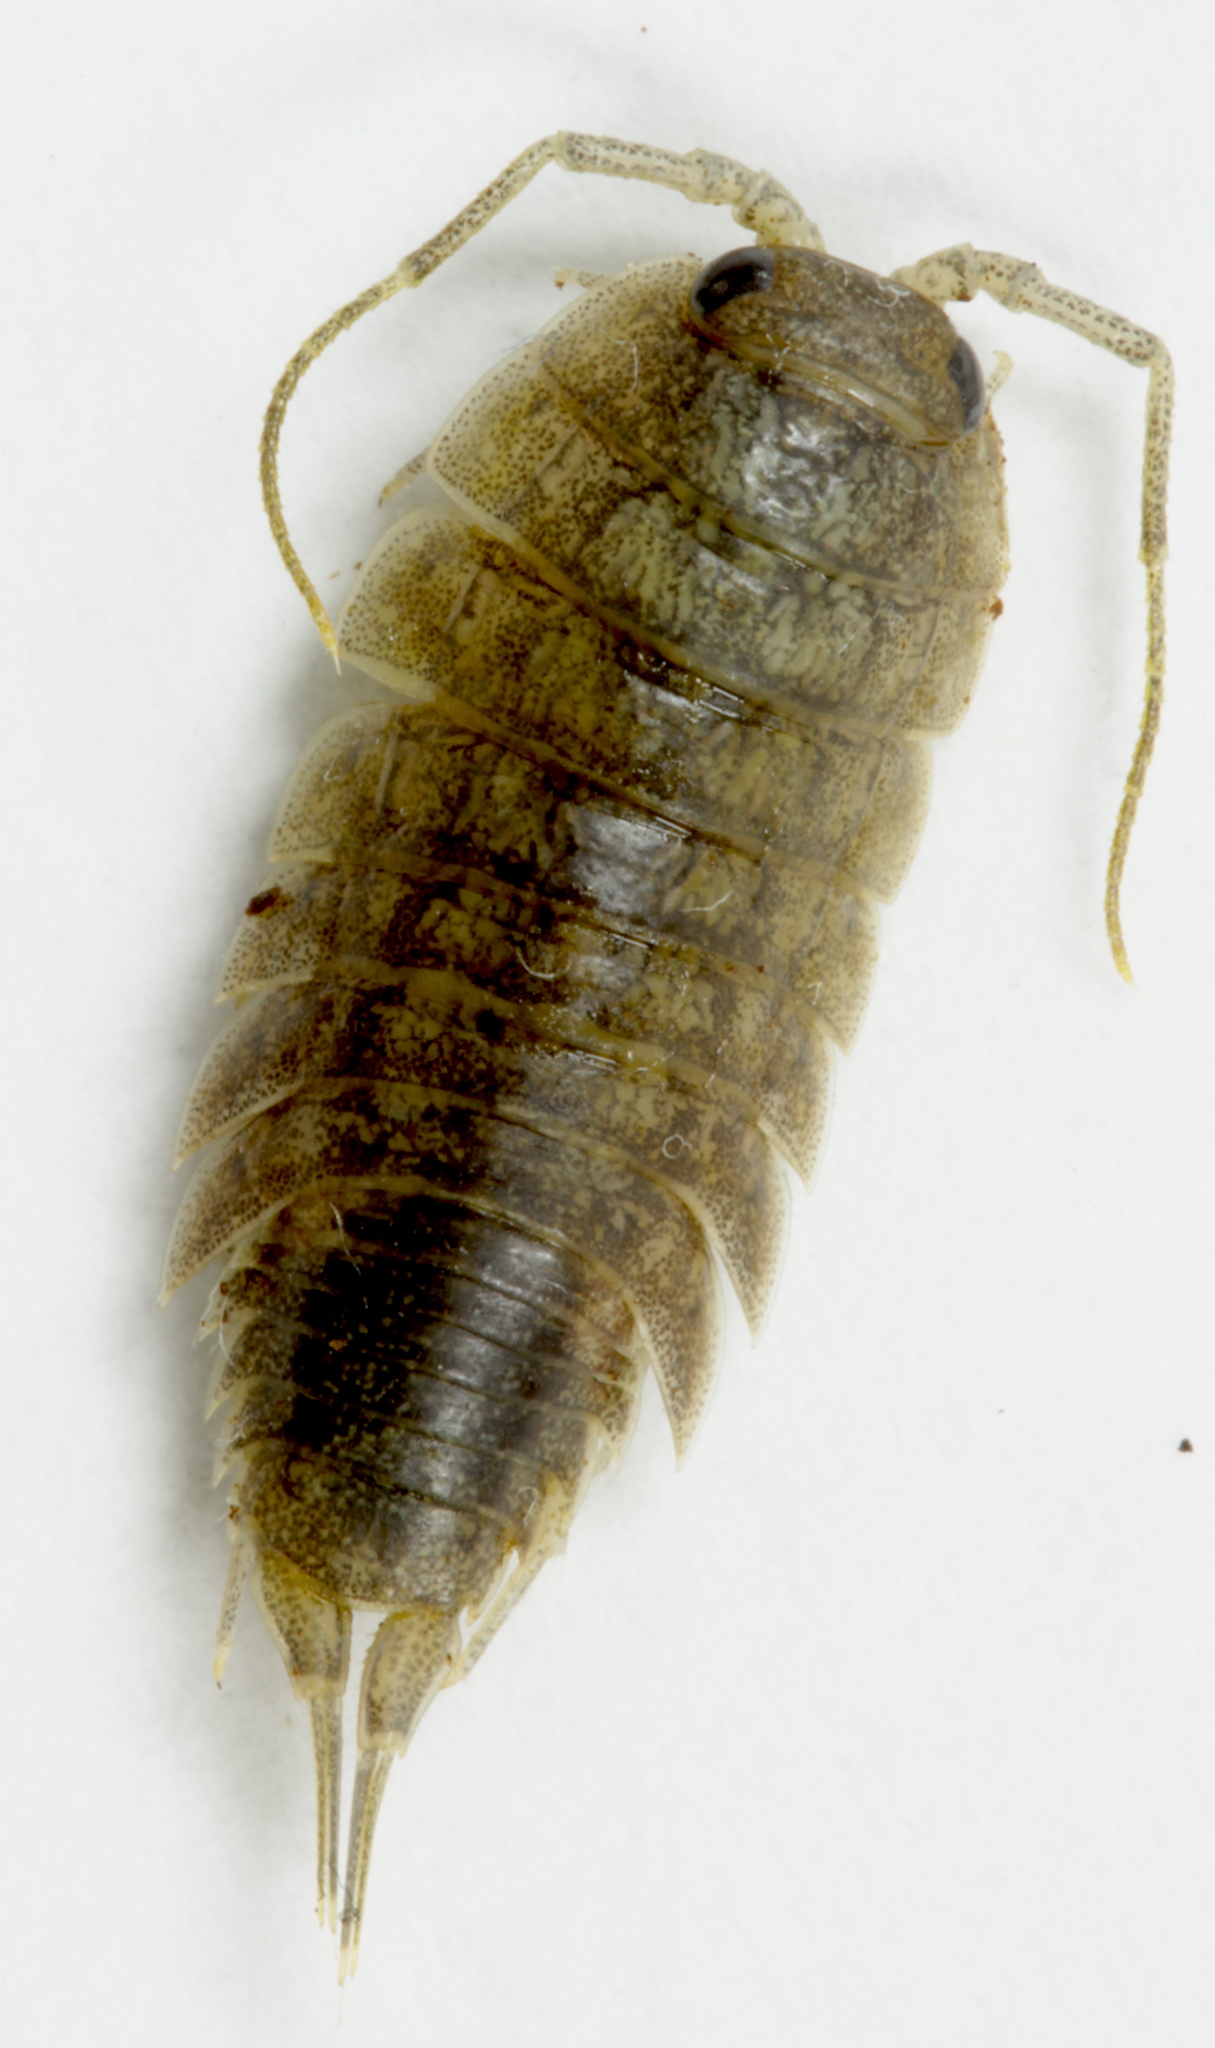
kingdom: Animalia
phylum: Arthropoda
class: Malacostraca
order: Isopoda
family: Ligiidae
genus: Ligia
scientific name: Ligia novizealandiae
